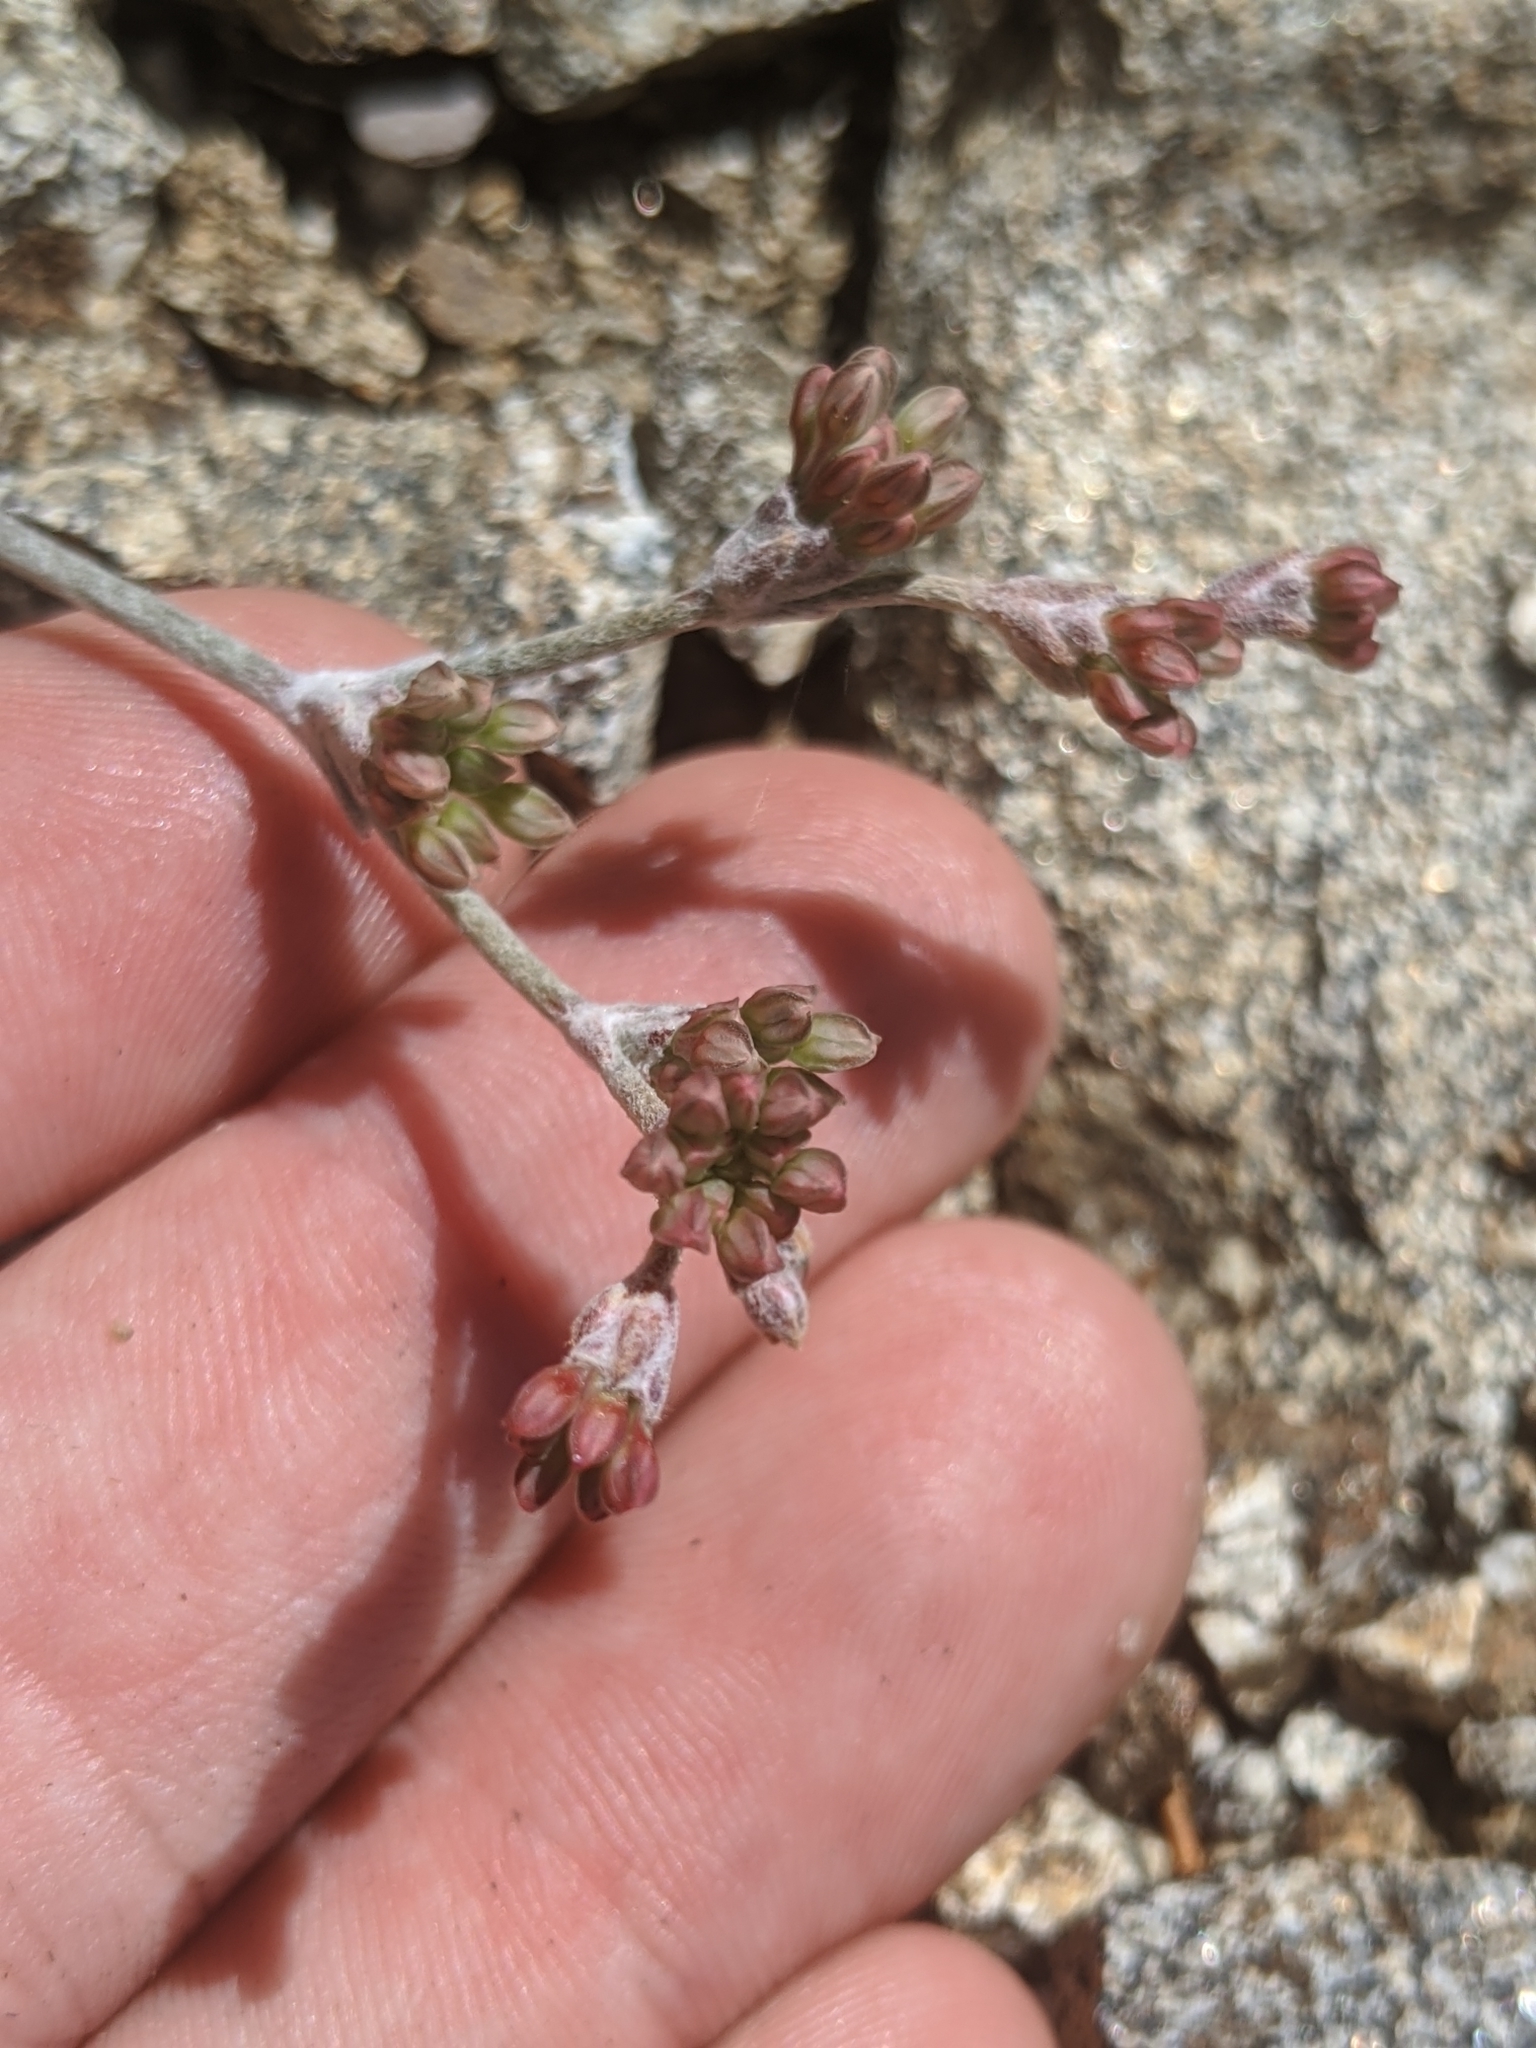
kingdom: Plantae
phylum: Tracheophyta
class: Magnoliopsida
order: Caryophyllales
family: Polygonaceae
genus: Eriogonum
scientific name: Eriogonum saxatile
